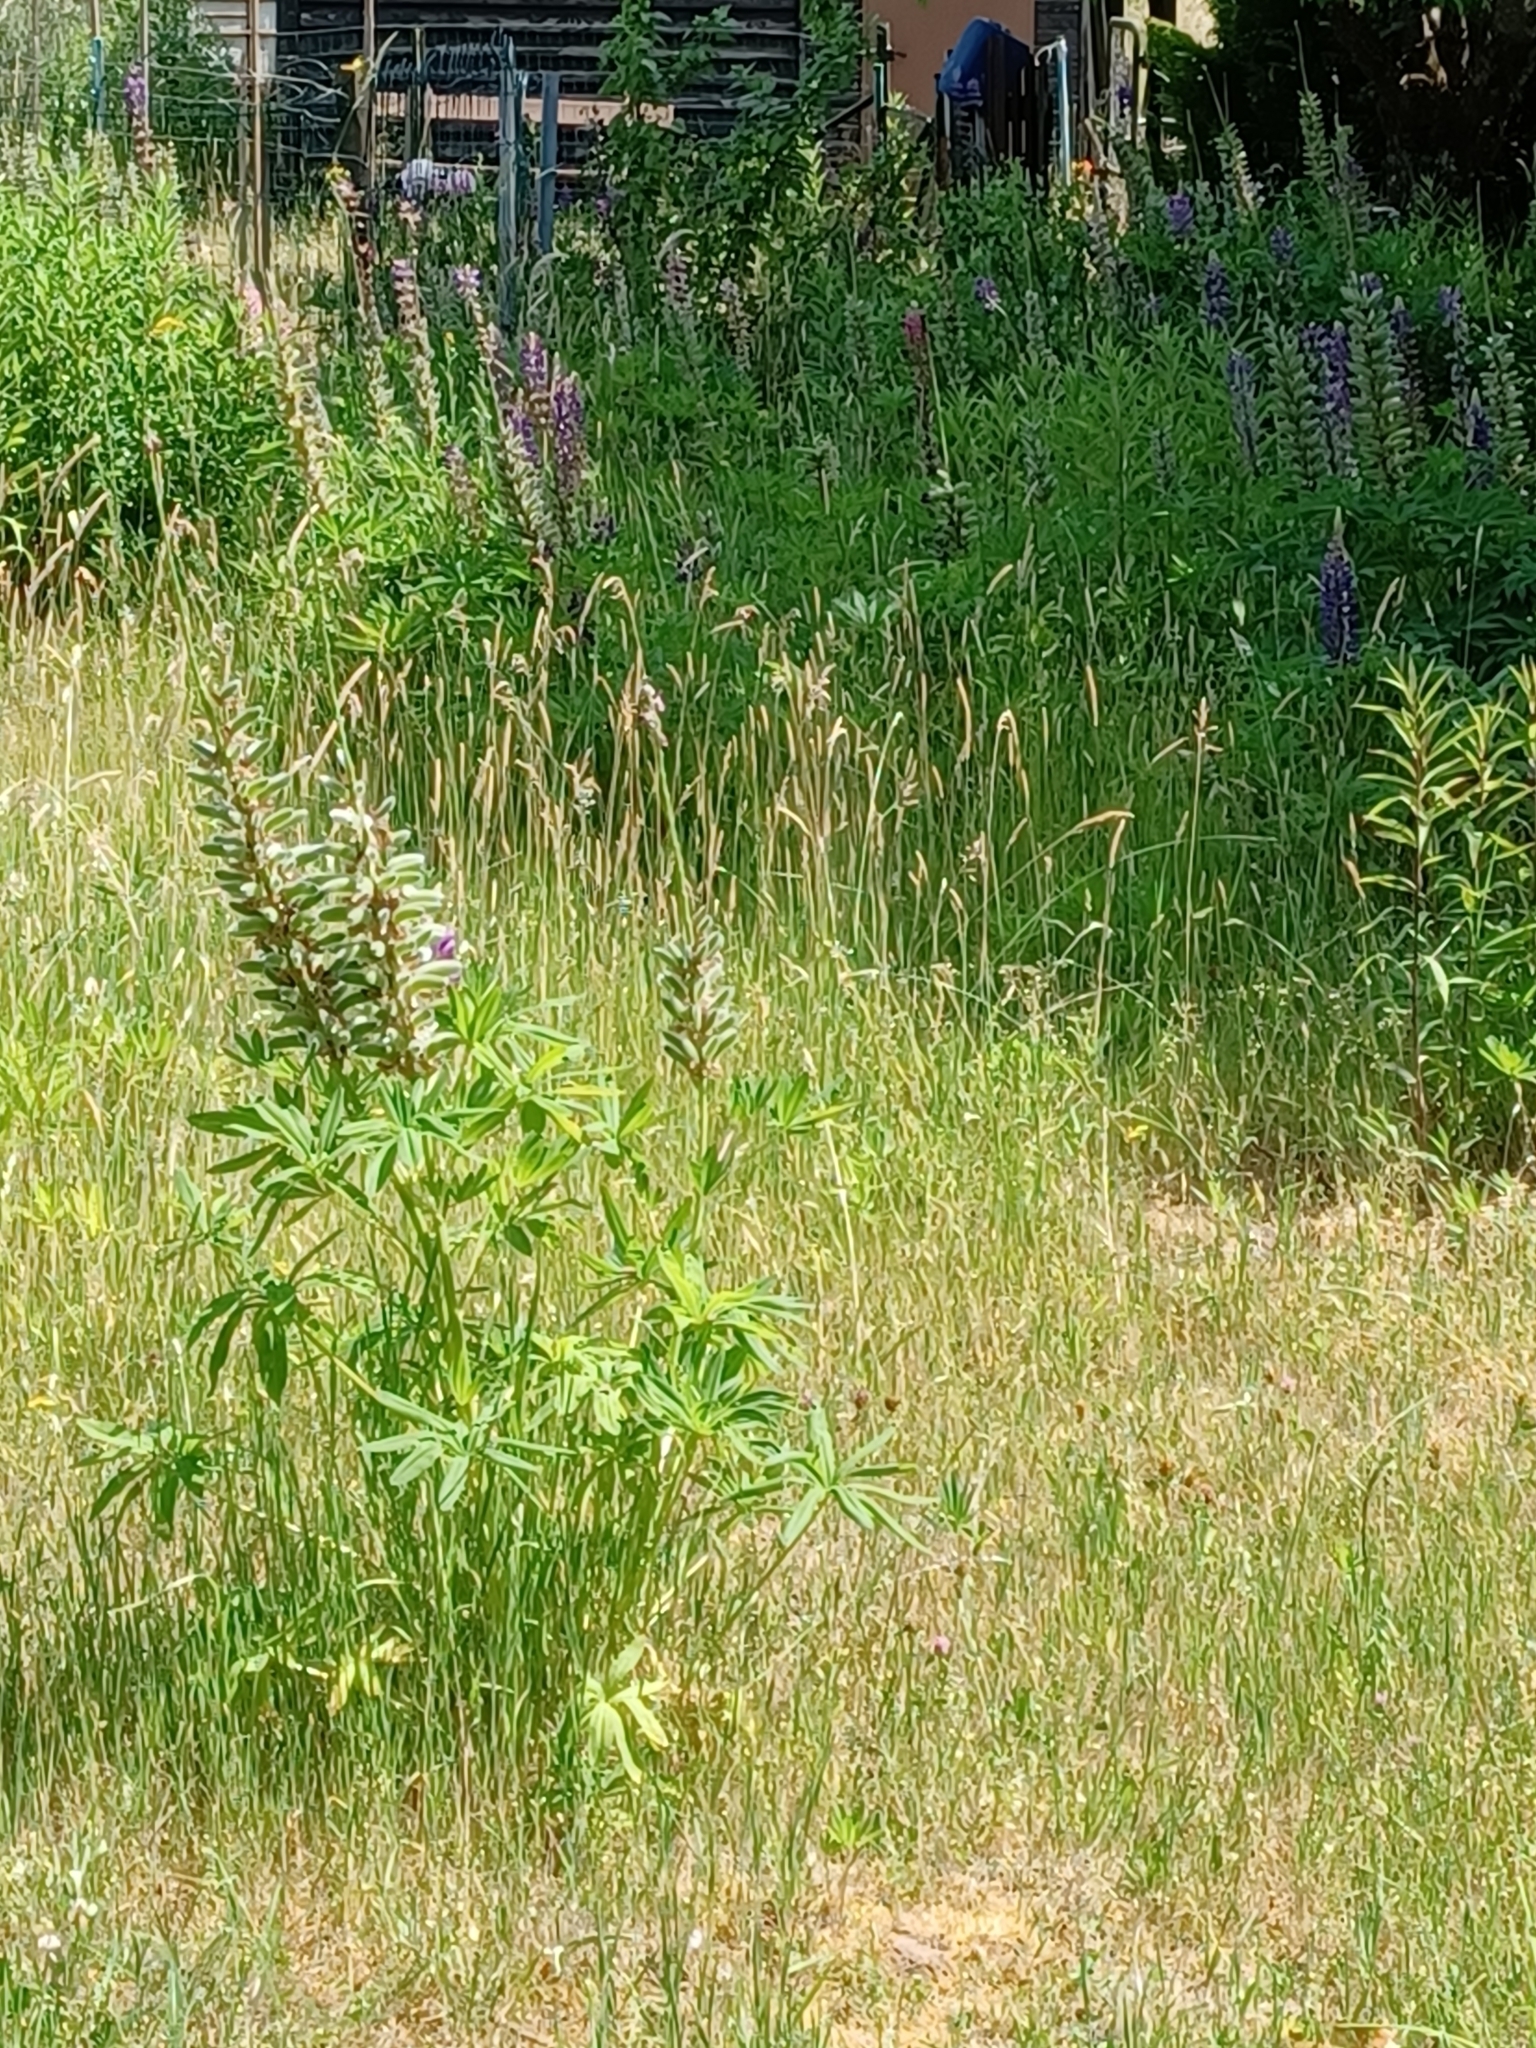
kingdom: Plantae
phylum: Tracheophyta
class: Magnoliopsida
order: Fabales
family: Fabaceae
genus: Lupinus
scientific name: Lupinus polyphyllus
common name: Garden lupin
